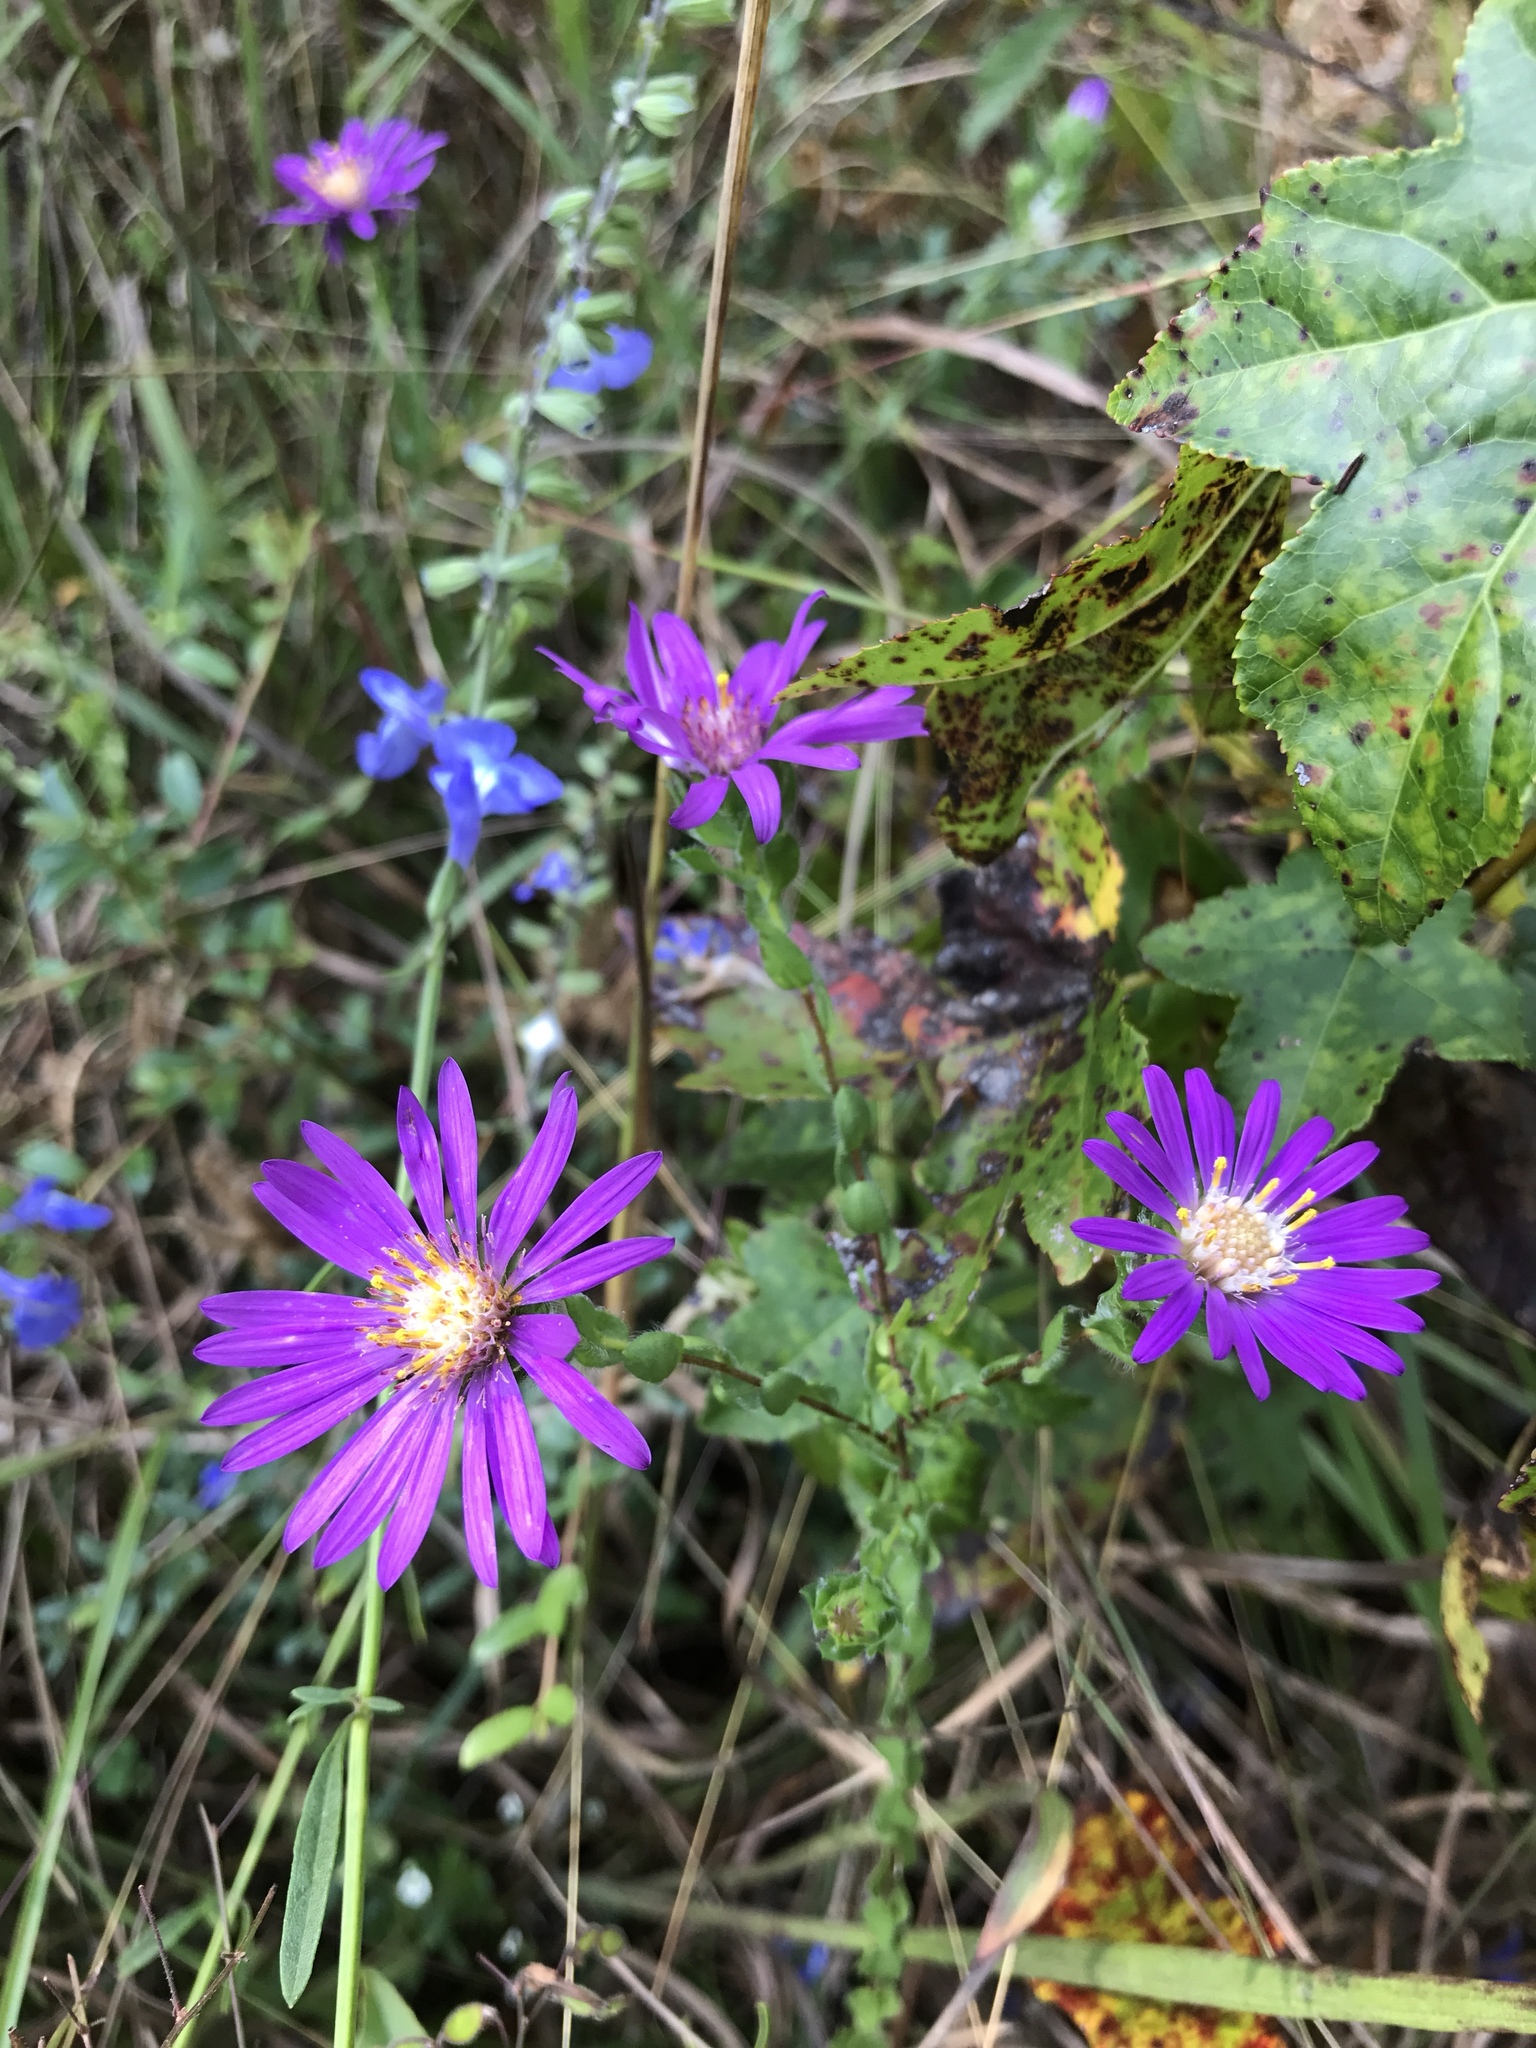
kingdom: Plantae
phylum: Tracheophyta
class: Magnoliopsida
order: Asterales
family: Asteraceae
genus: Symphyotrichum
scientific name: Symphyotrichum pratense
